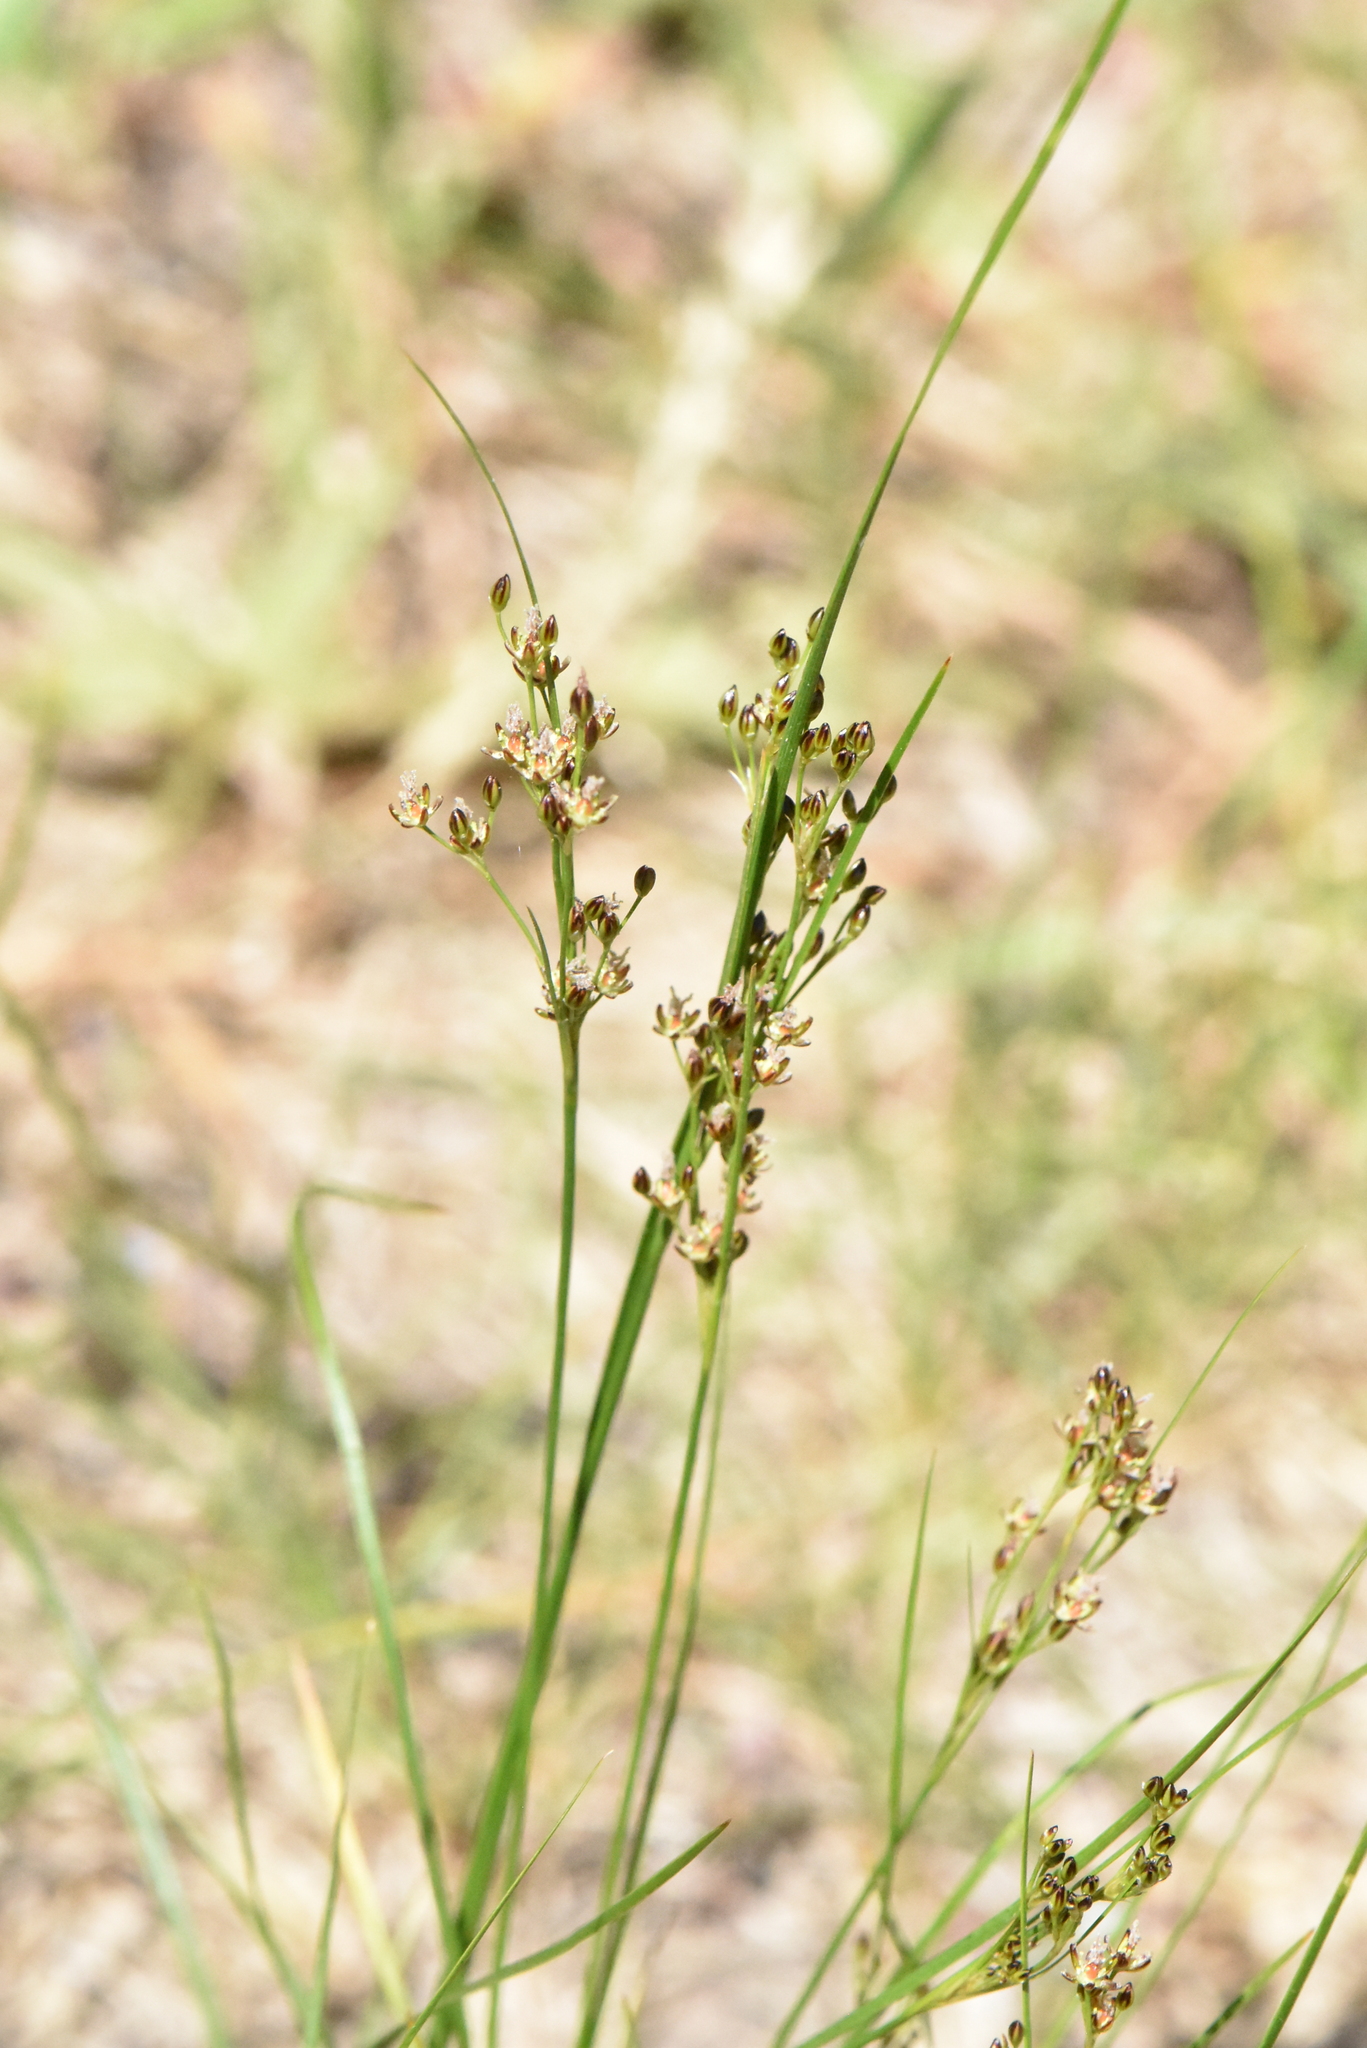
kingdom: Plantae
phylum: Tracheophyta
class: Liliopsida
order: Poales
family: Juncaceae
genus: Juncus
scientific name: Juncus compressus
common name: Round-fruited rush
